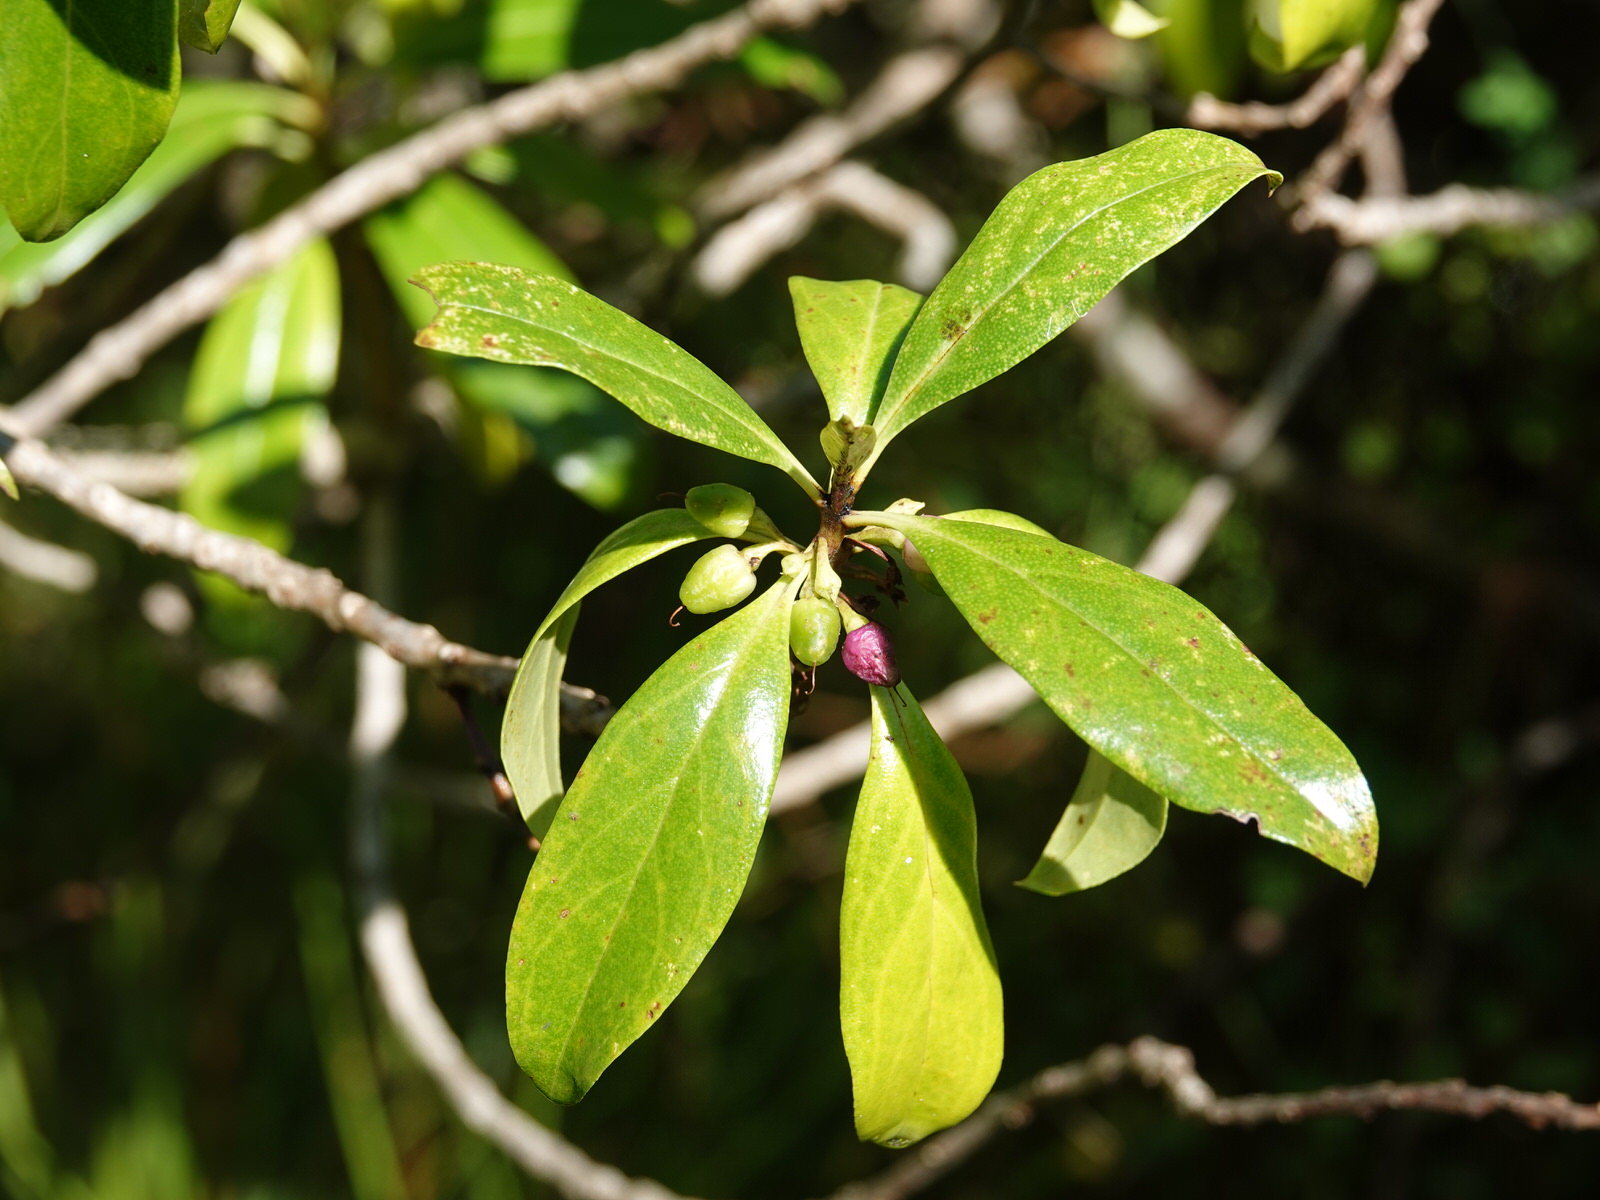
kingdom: Plantae
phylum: Tracheophyta
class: Magnoliopsida
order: Lamiales
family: Scrophulariaceae
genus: Myoporum
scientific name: Myoporum laetum
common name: Ngaio tree
